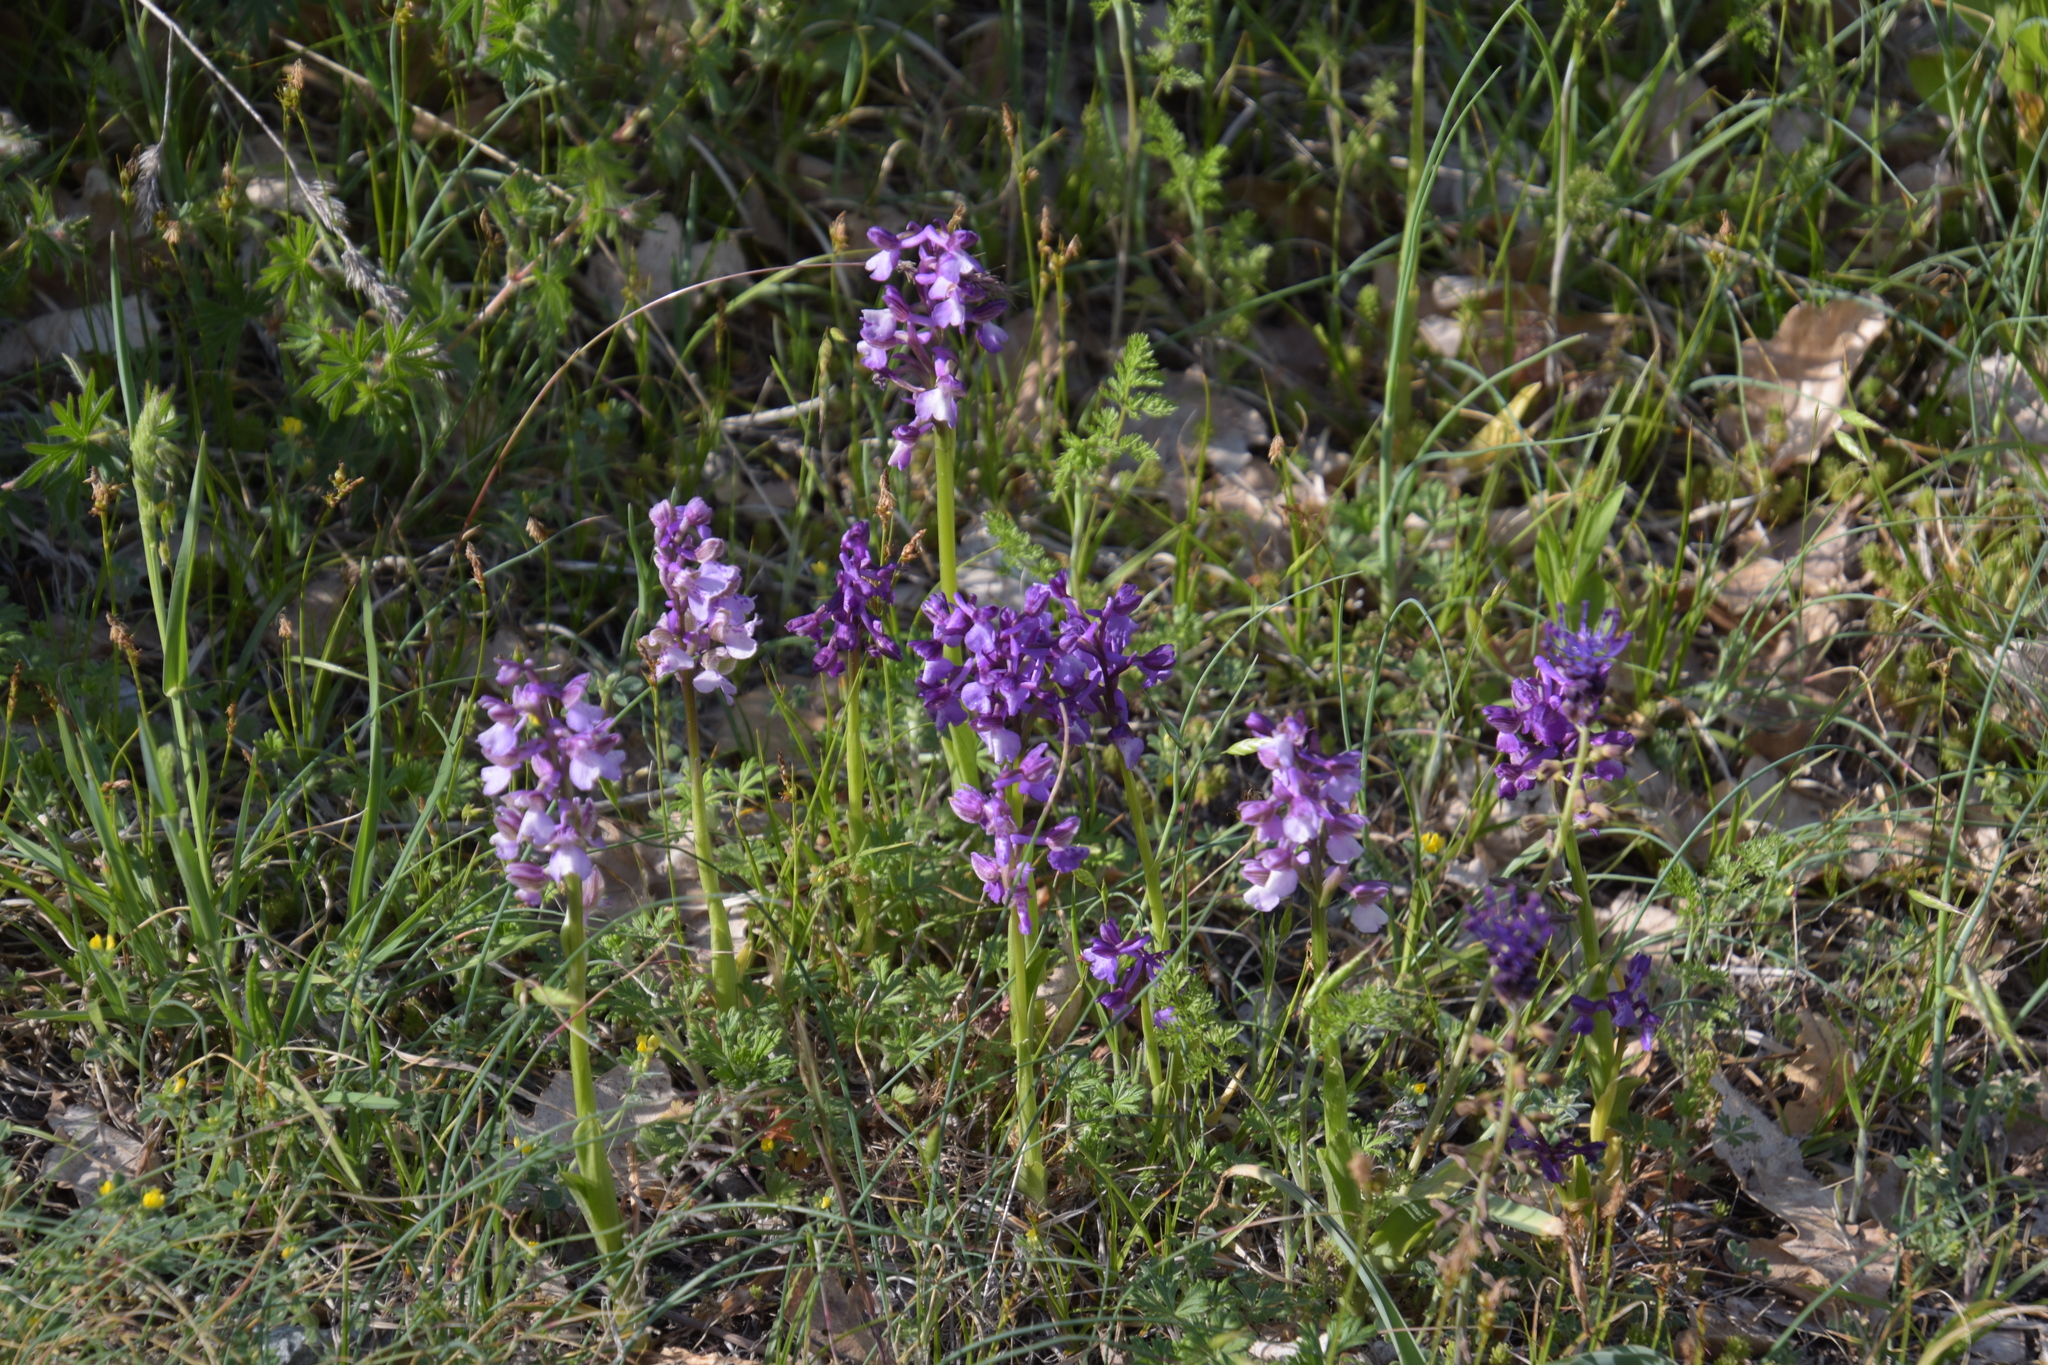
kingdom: Plantae
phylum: Tracheophyta
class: Liliopsida
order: Asparagales
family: Orchidaceae
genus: Anacamptis
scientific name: Anacamptis morio
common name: Green-winged orchid
